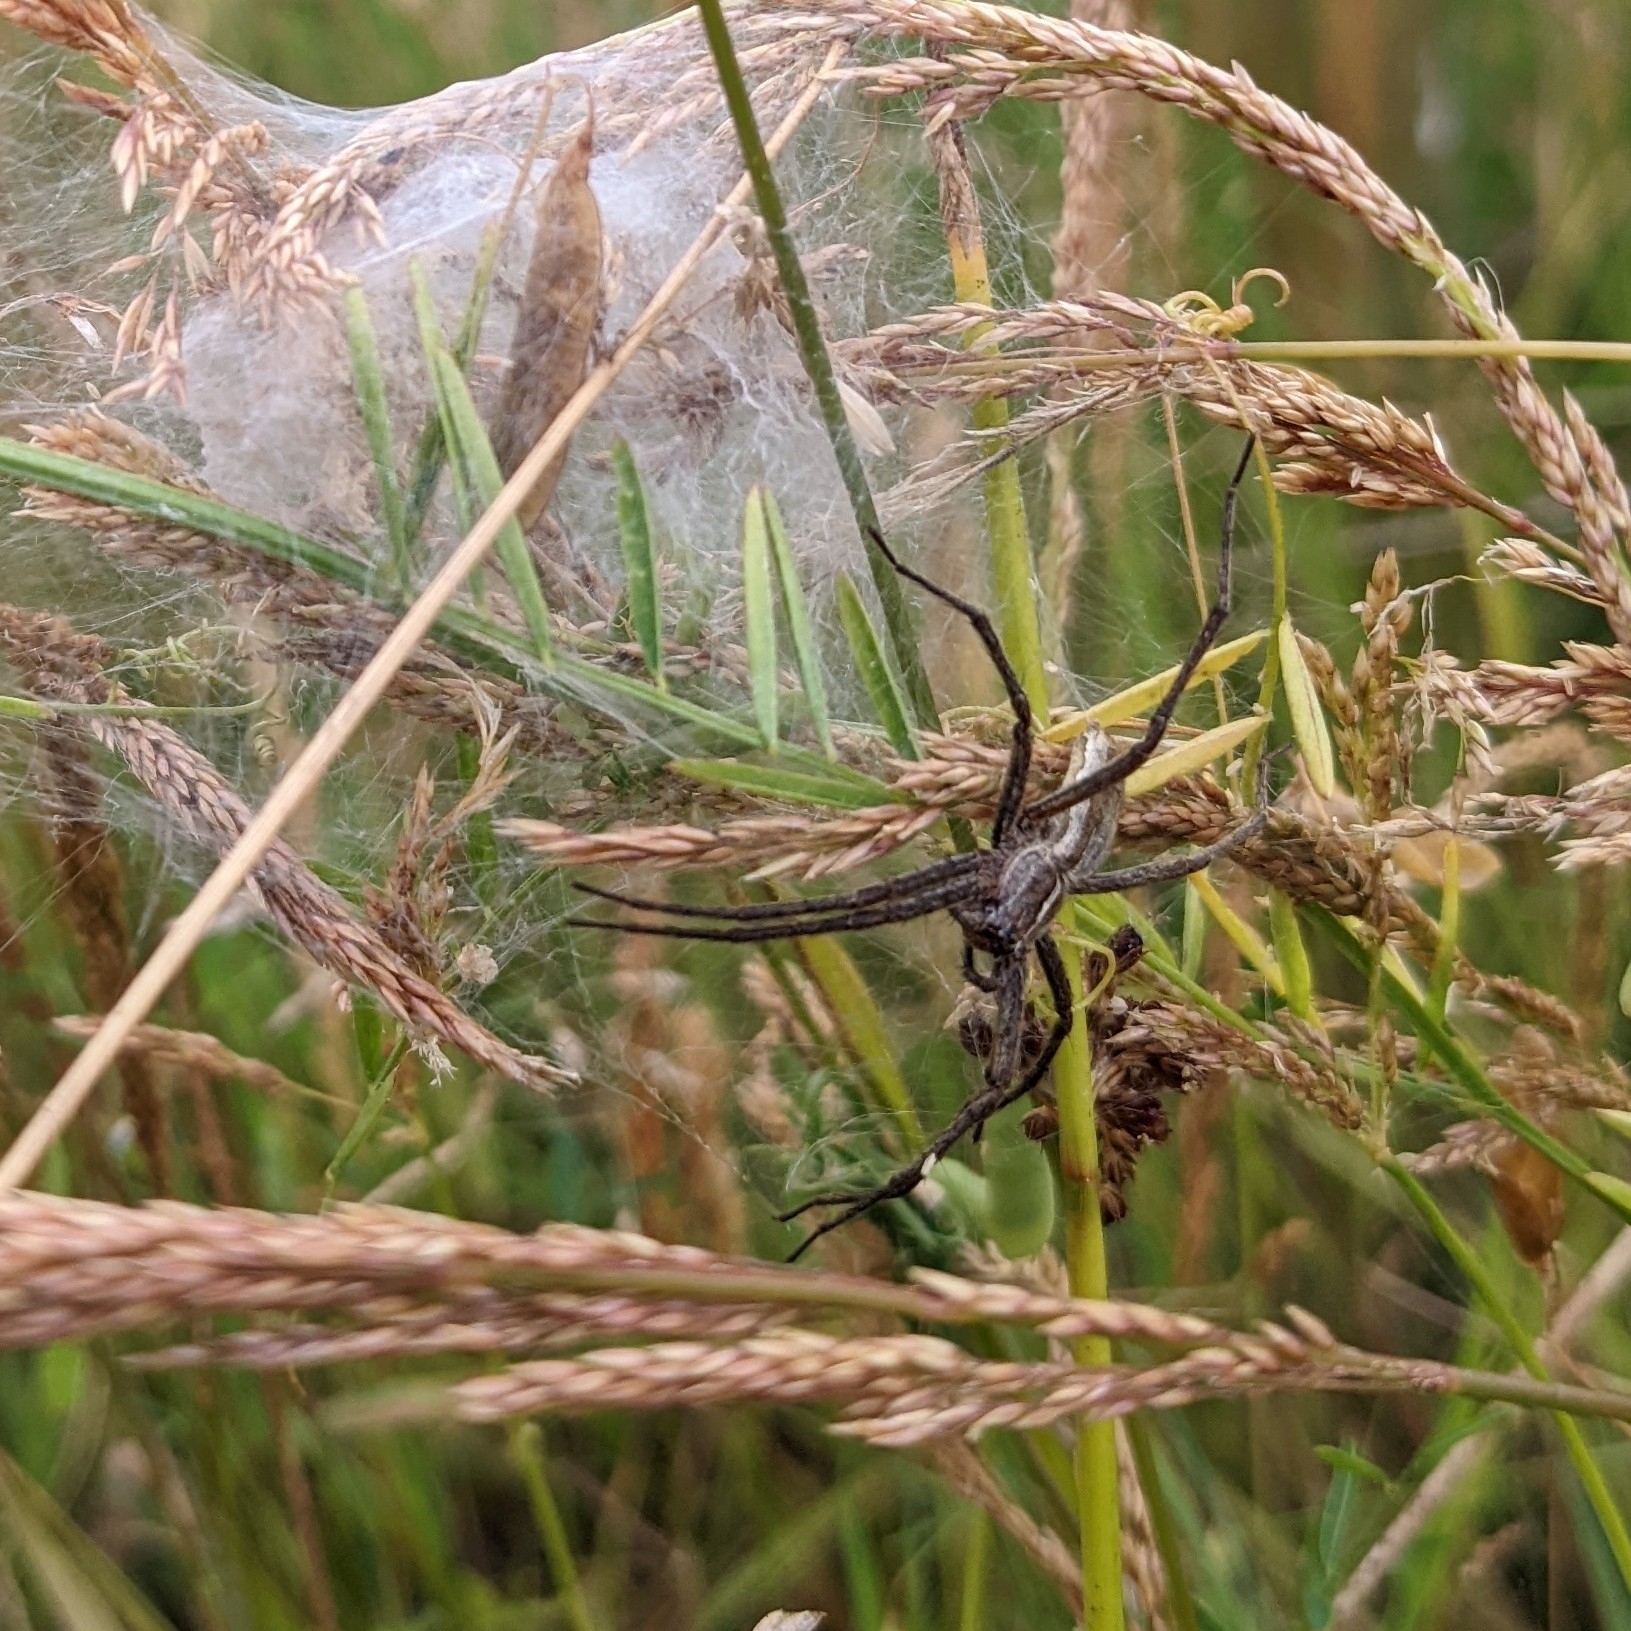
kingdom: Animalia
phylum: Arthropoda
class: Arachnida
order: Araneae
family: Pisauridae
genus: Pisaura
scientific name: Pisaura mirabilis
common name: Tent spider
